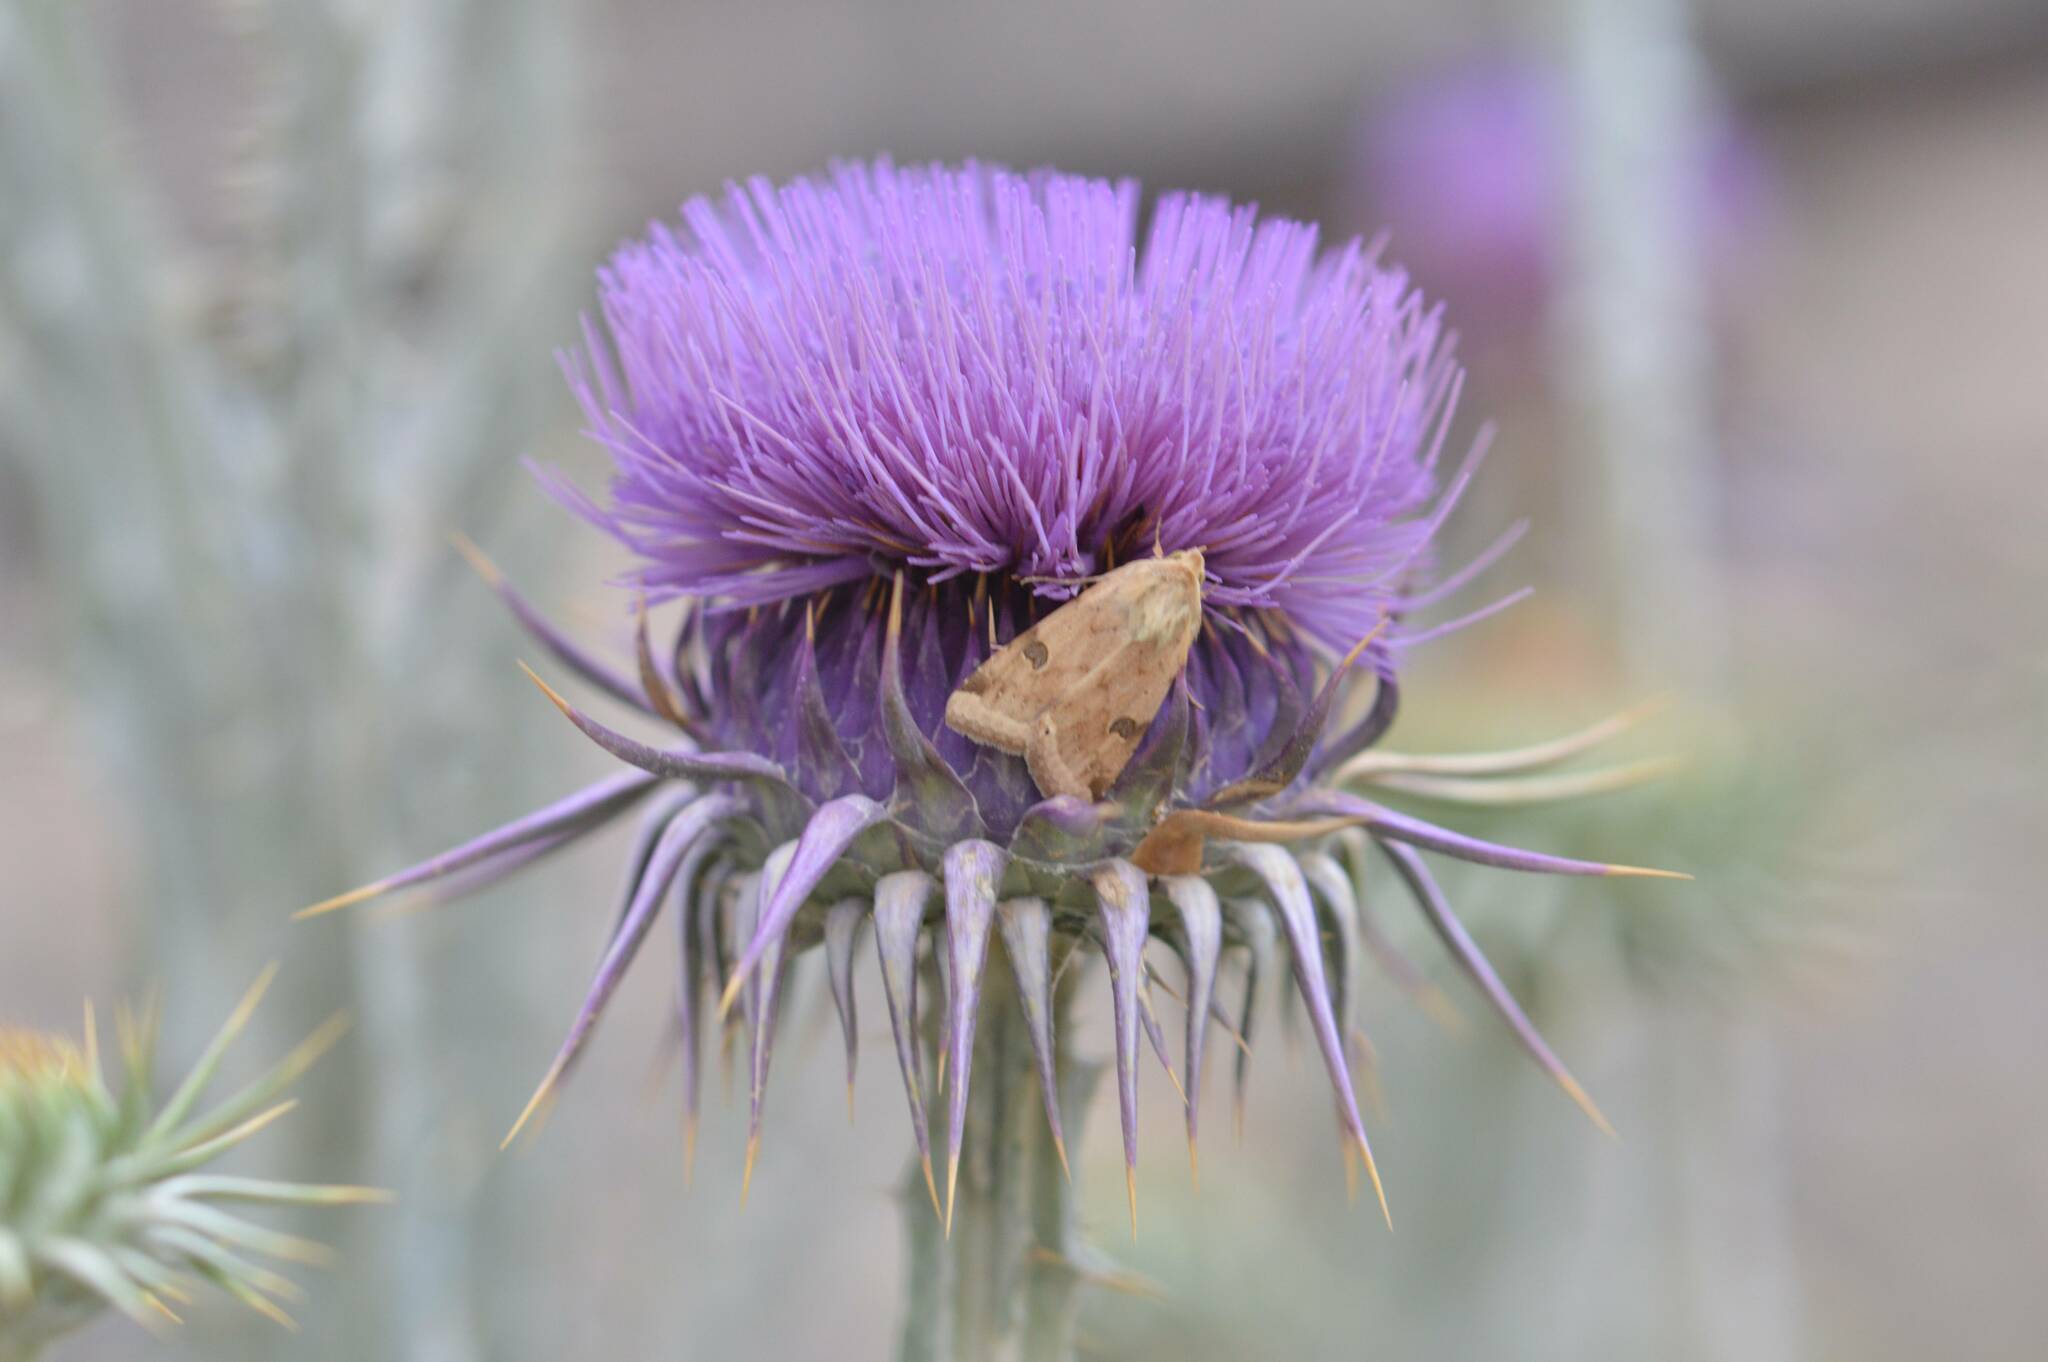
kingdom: Animalia
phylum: Arthropoda
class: Insecta
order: Lepidoptera
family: Noctuidae
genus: Heliothis
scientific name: Heliothis peltigera
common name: Bordered straw
